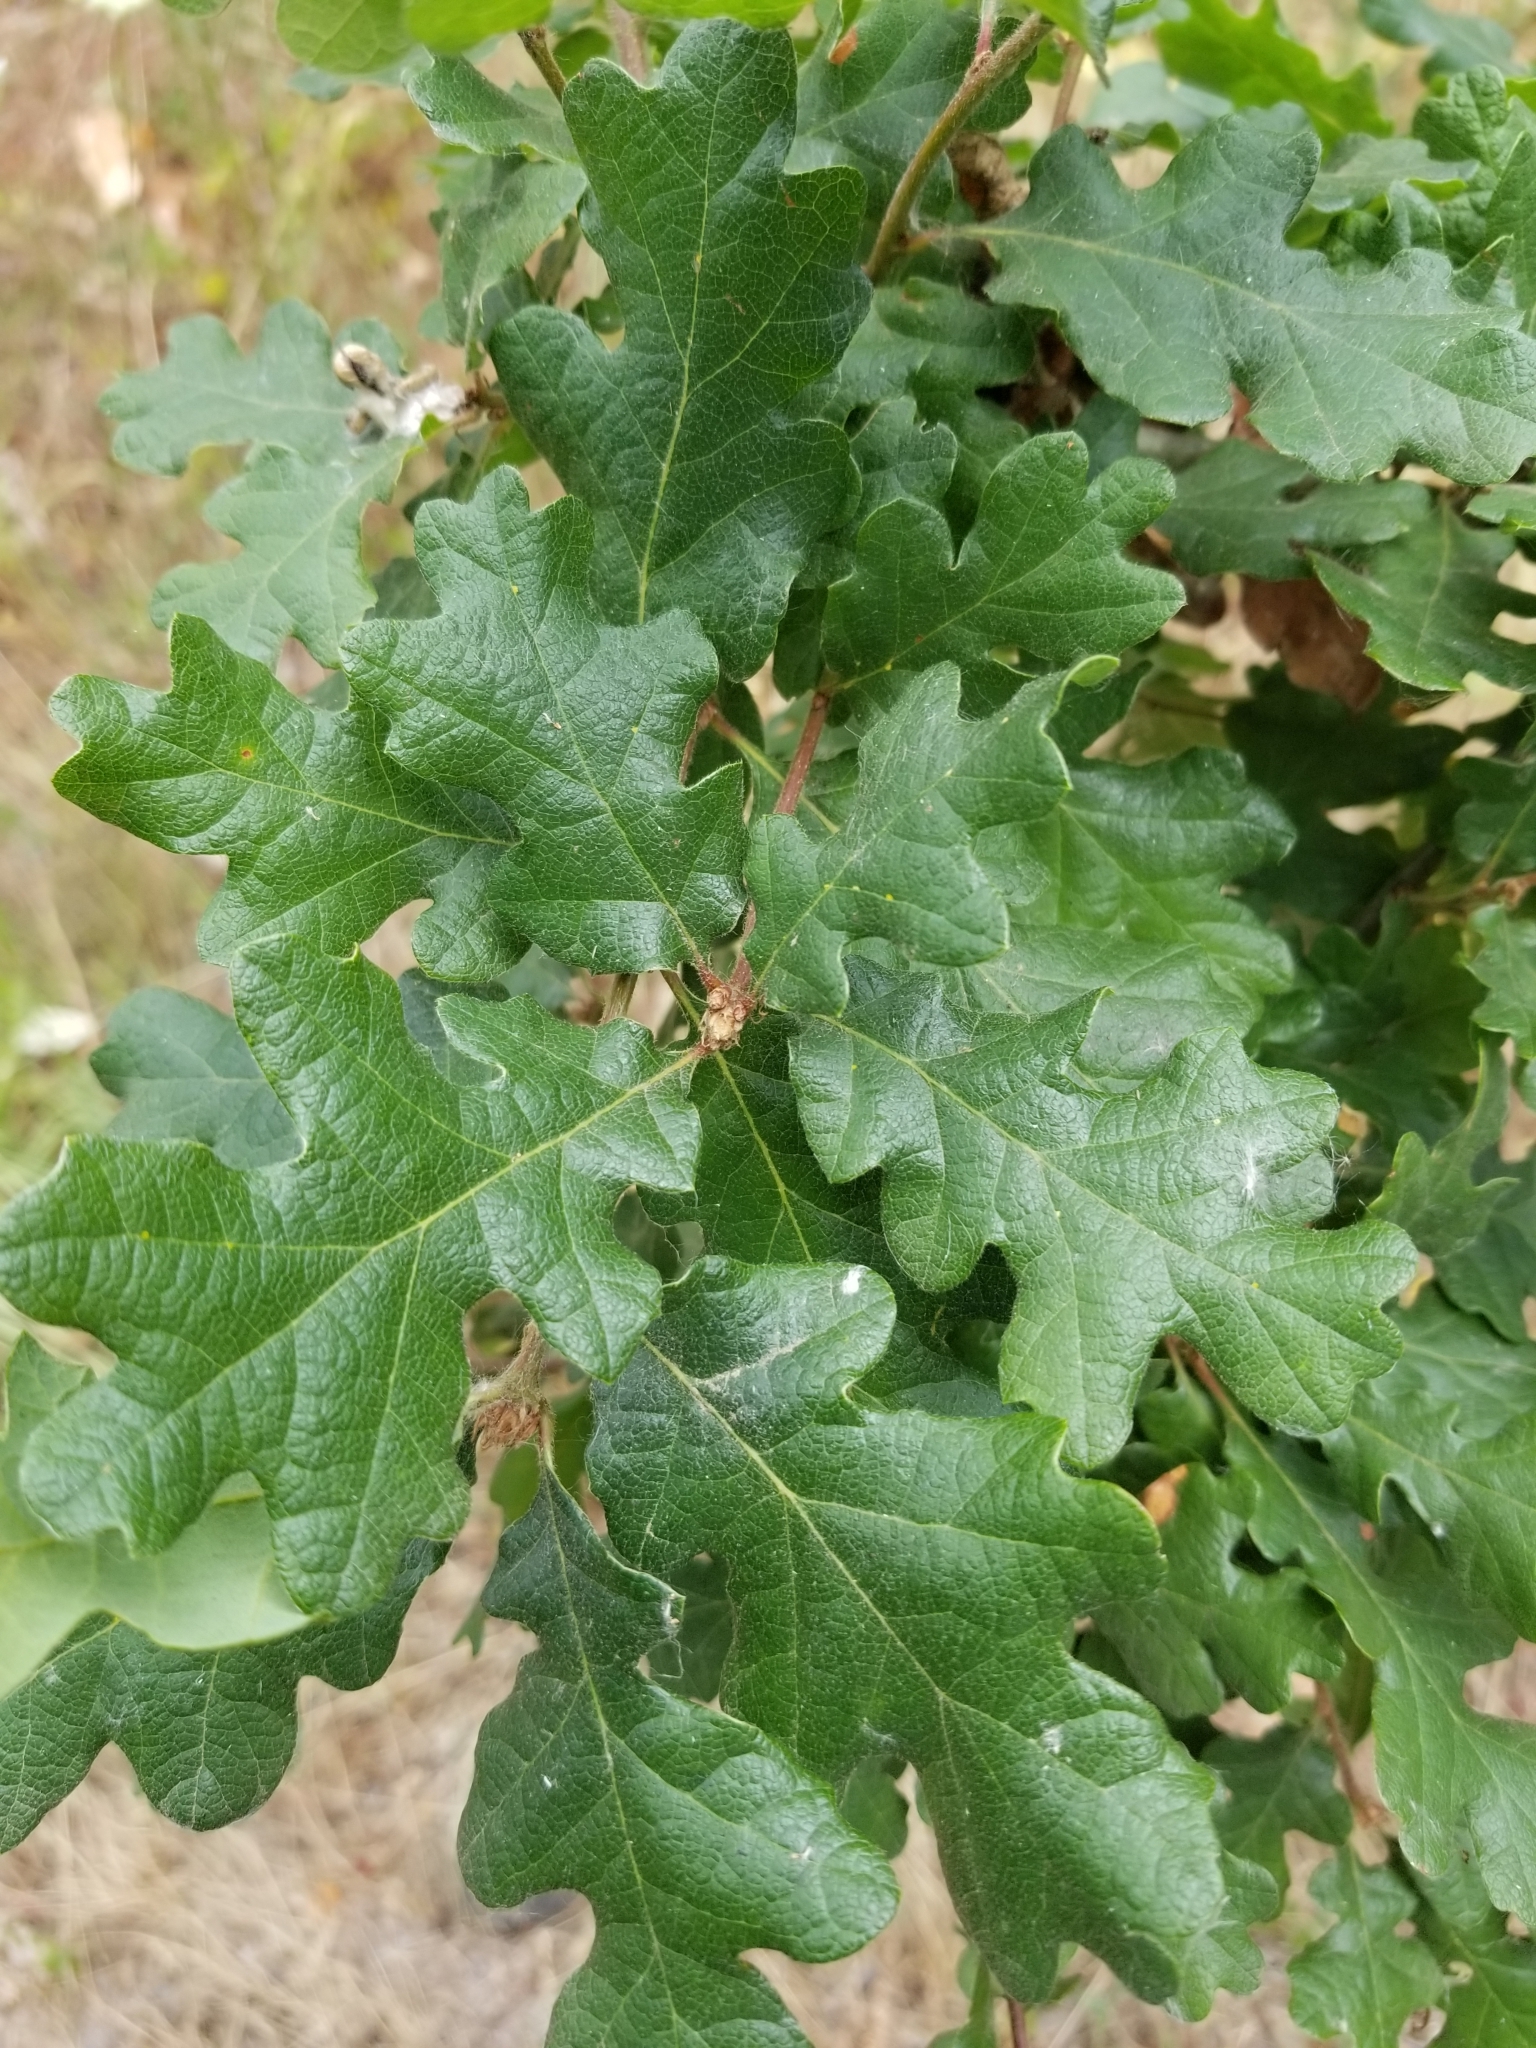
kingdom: Plantae
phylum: Tracheophyta
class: Magnoliopsida
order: Fagales
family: Fagaceae
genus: Quercus
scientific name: Quercus garryana
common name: Garry oak
